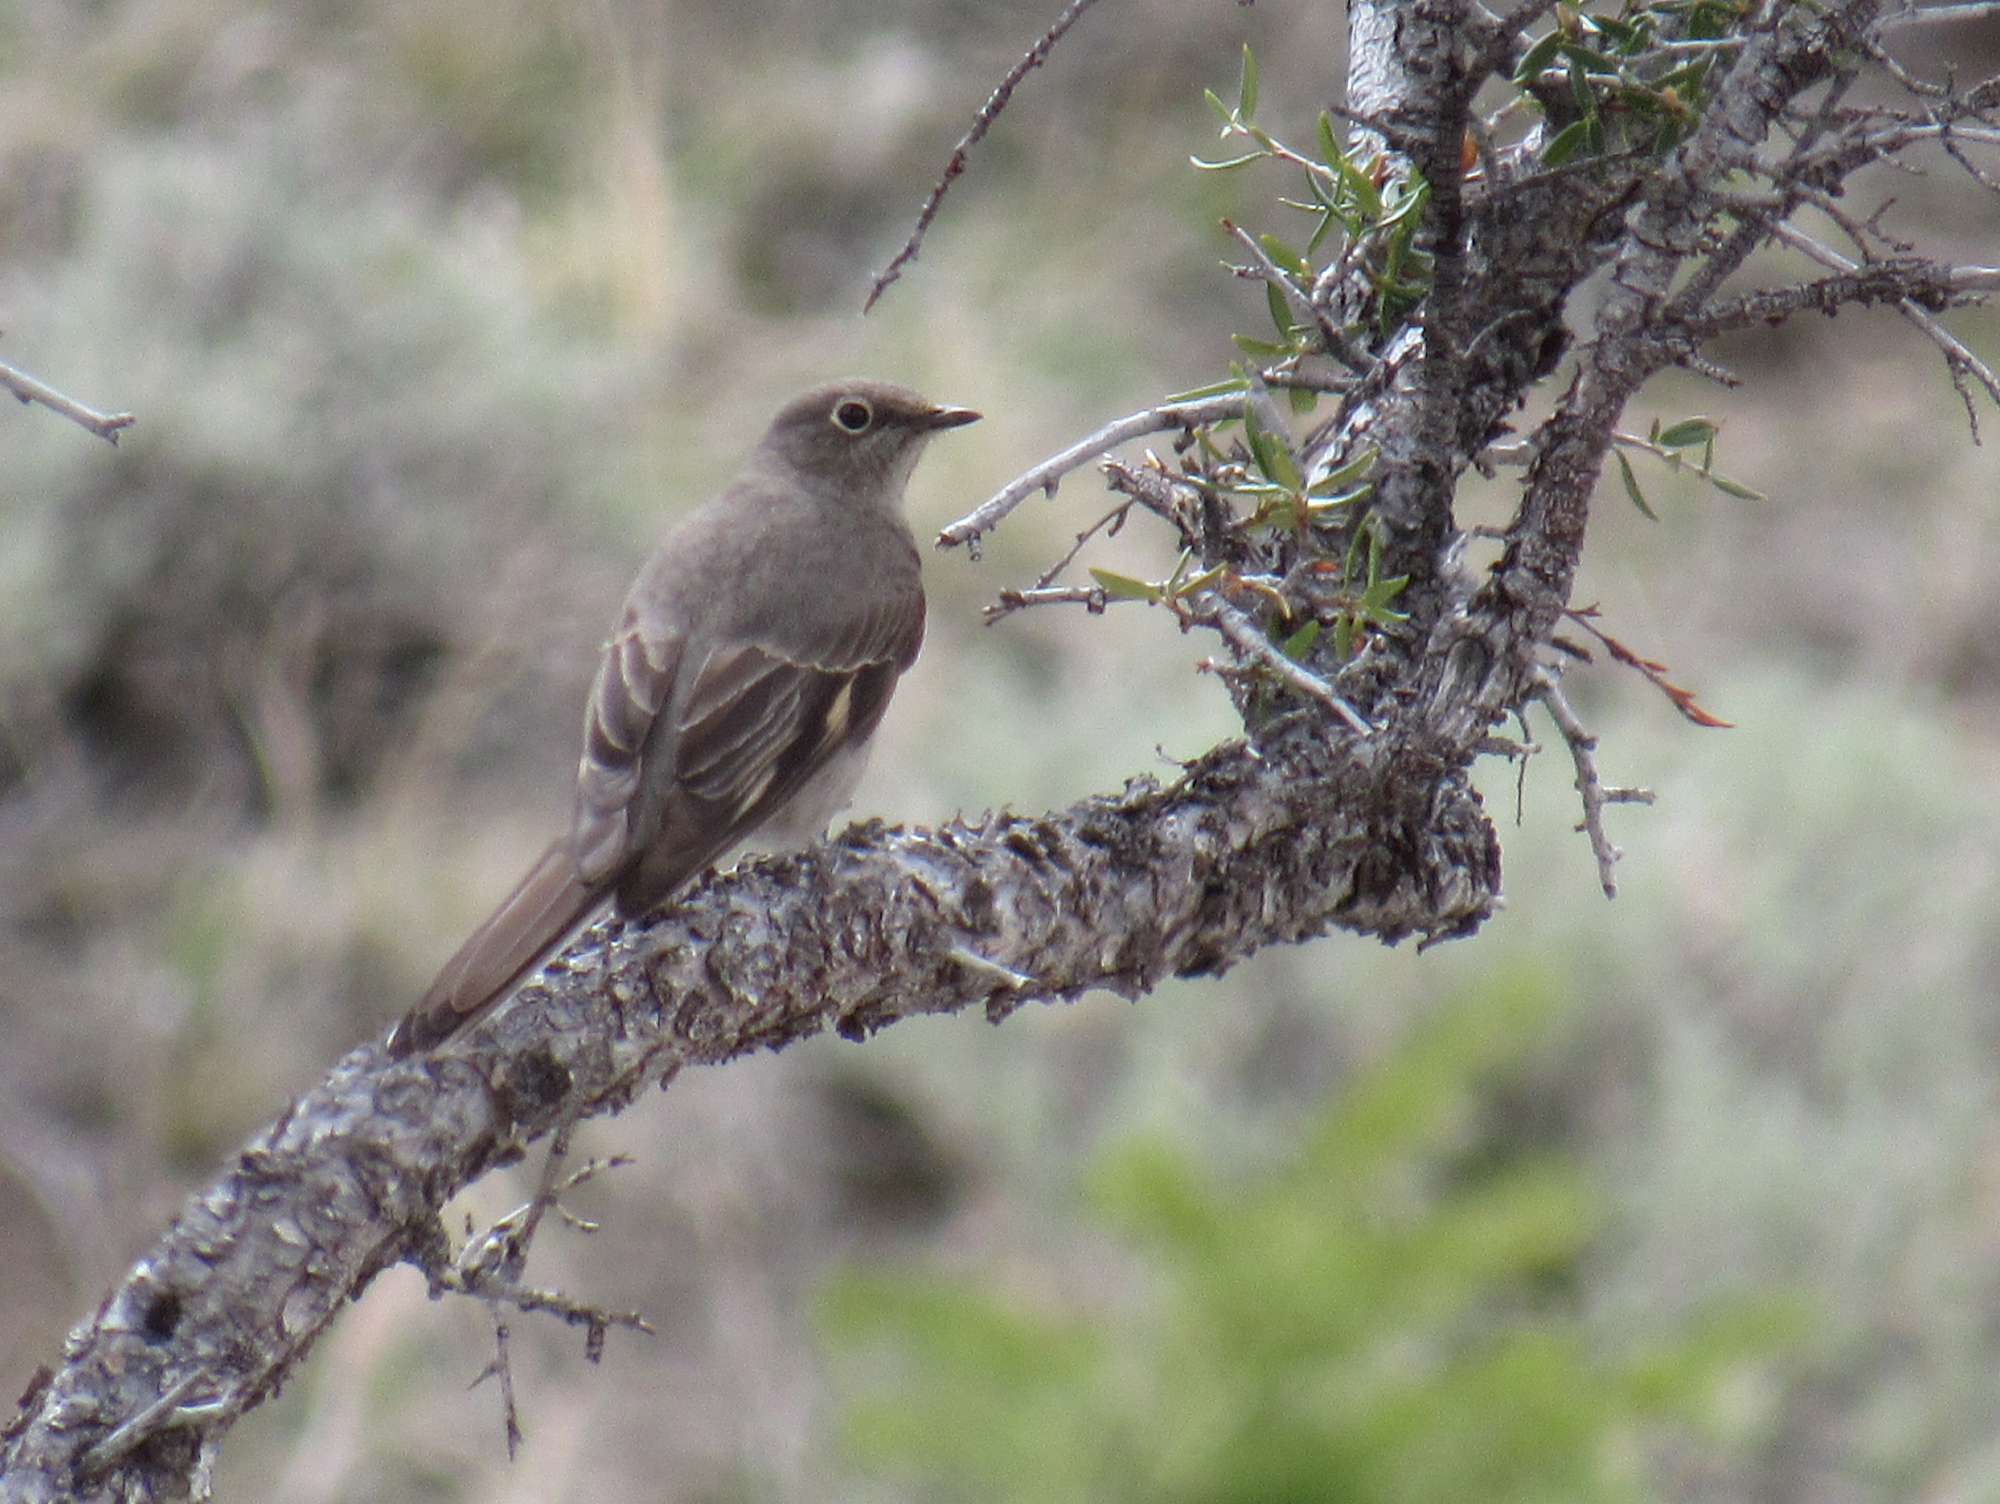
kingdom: Animalia
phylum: Chordata
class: Aves
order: Passeriformes
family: Turdidae
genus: Myadestes
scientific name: Myadestes townsendi
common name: Townsend's solitaire
